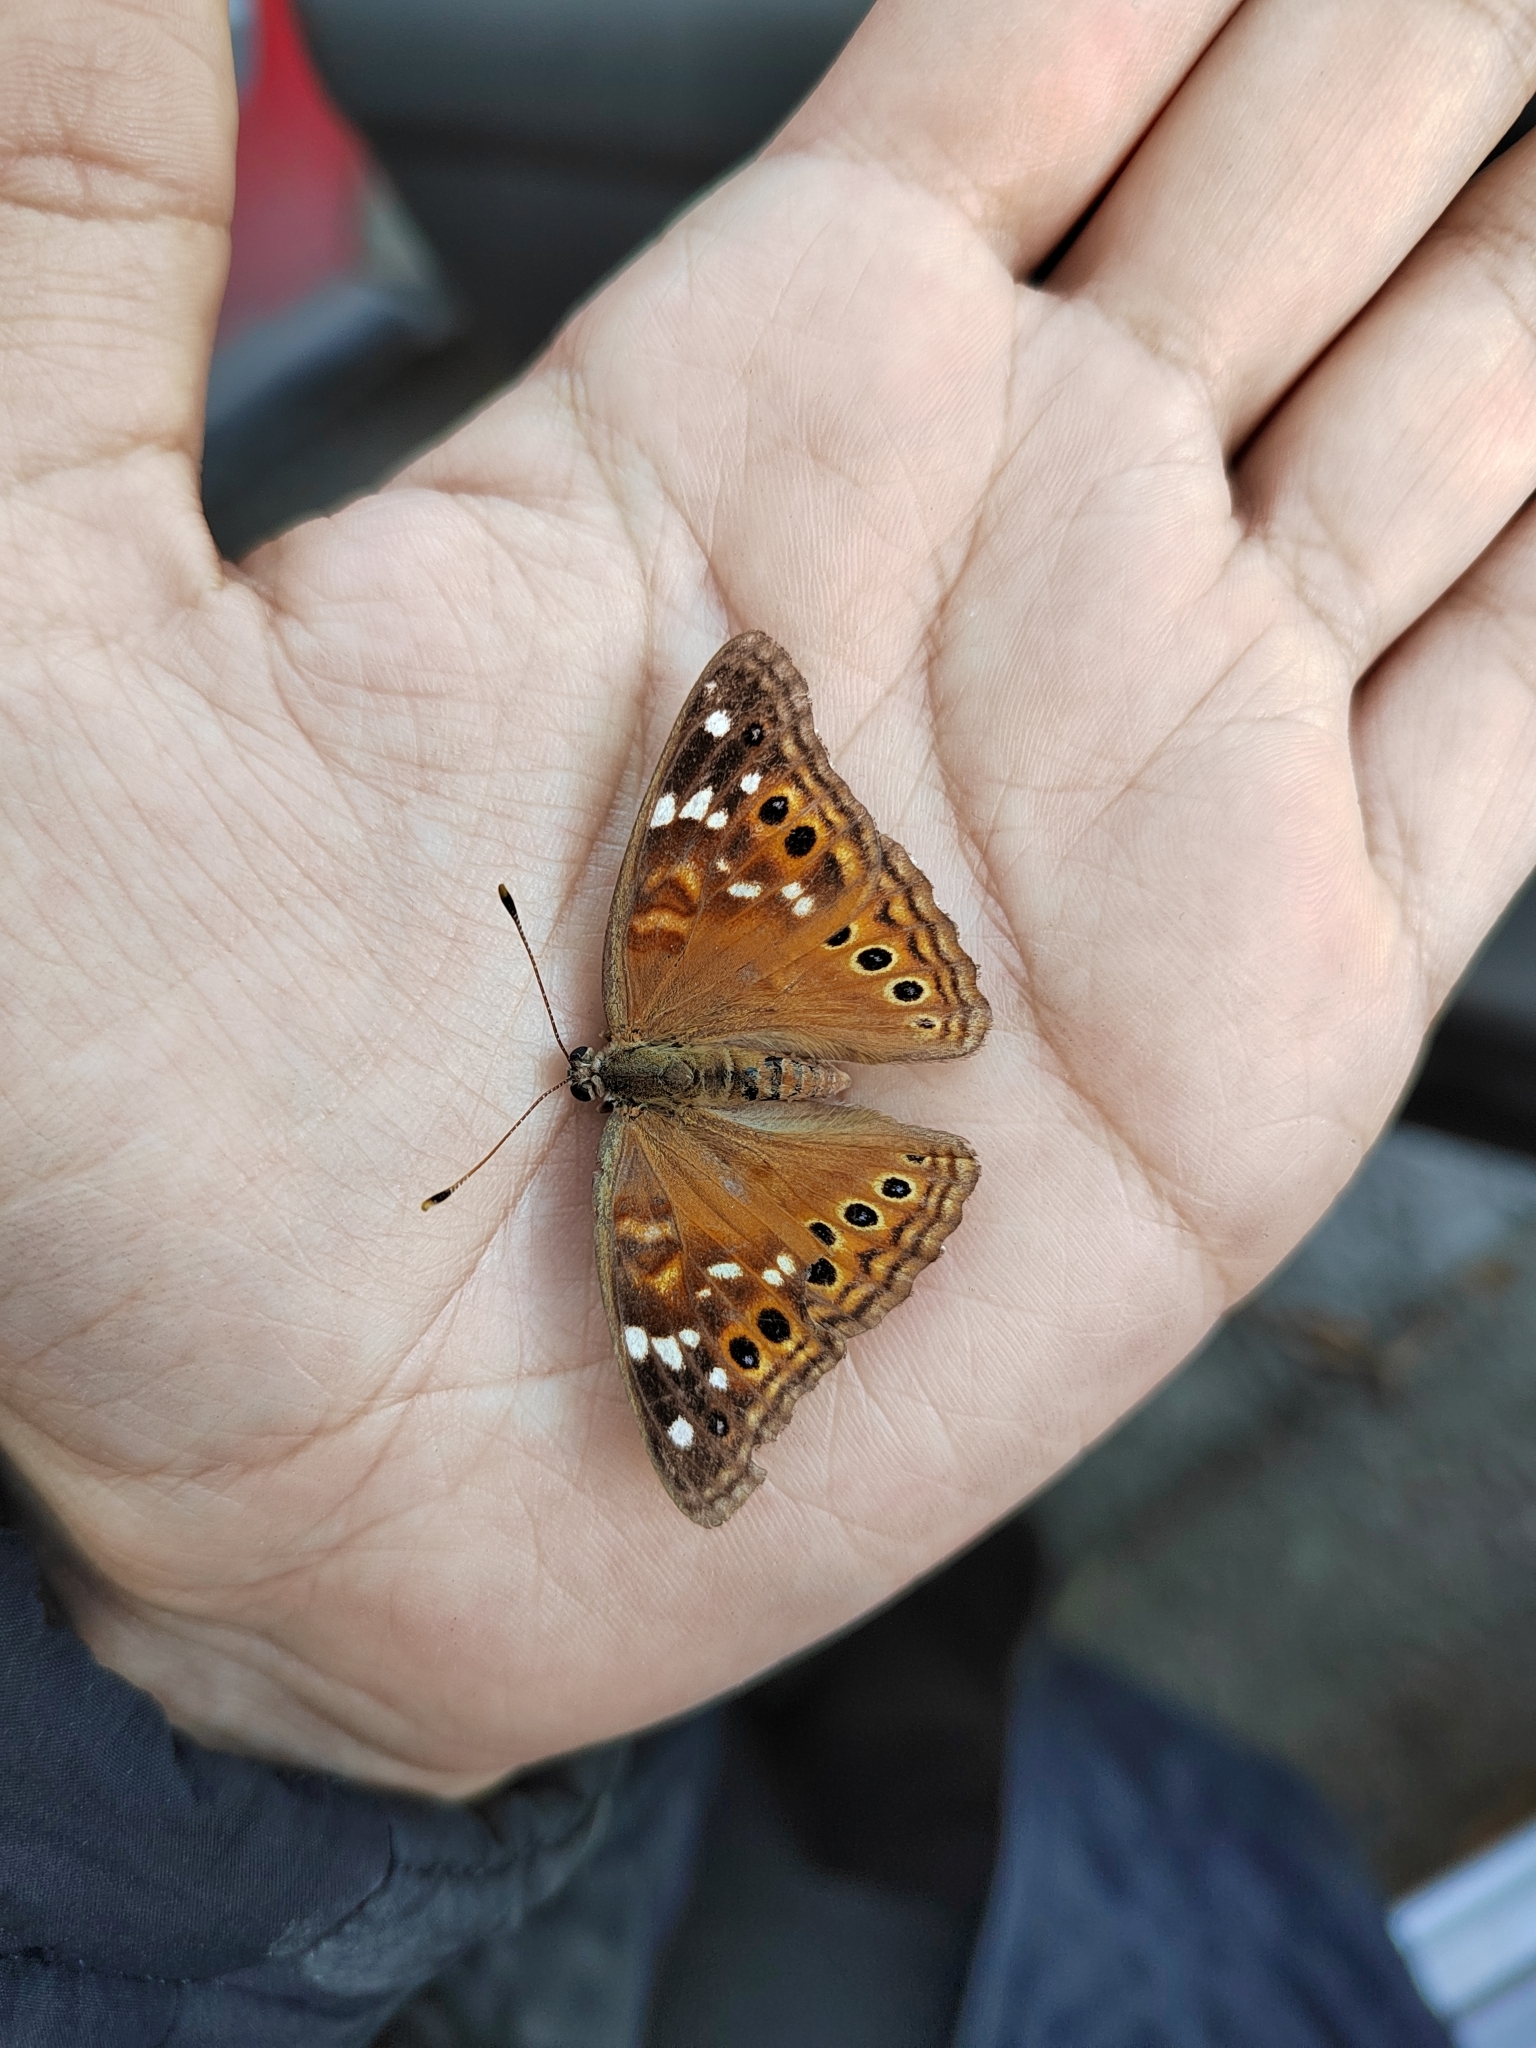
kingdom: Animalia
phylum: Arthropoda
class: Insecta
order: Lepidoptera
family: Nymphalidae
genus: Asterocampa
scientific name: Asterocampa leilia
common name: Empress leilia
